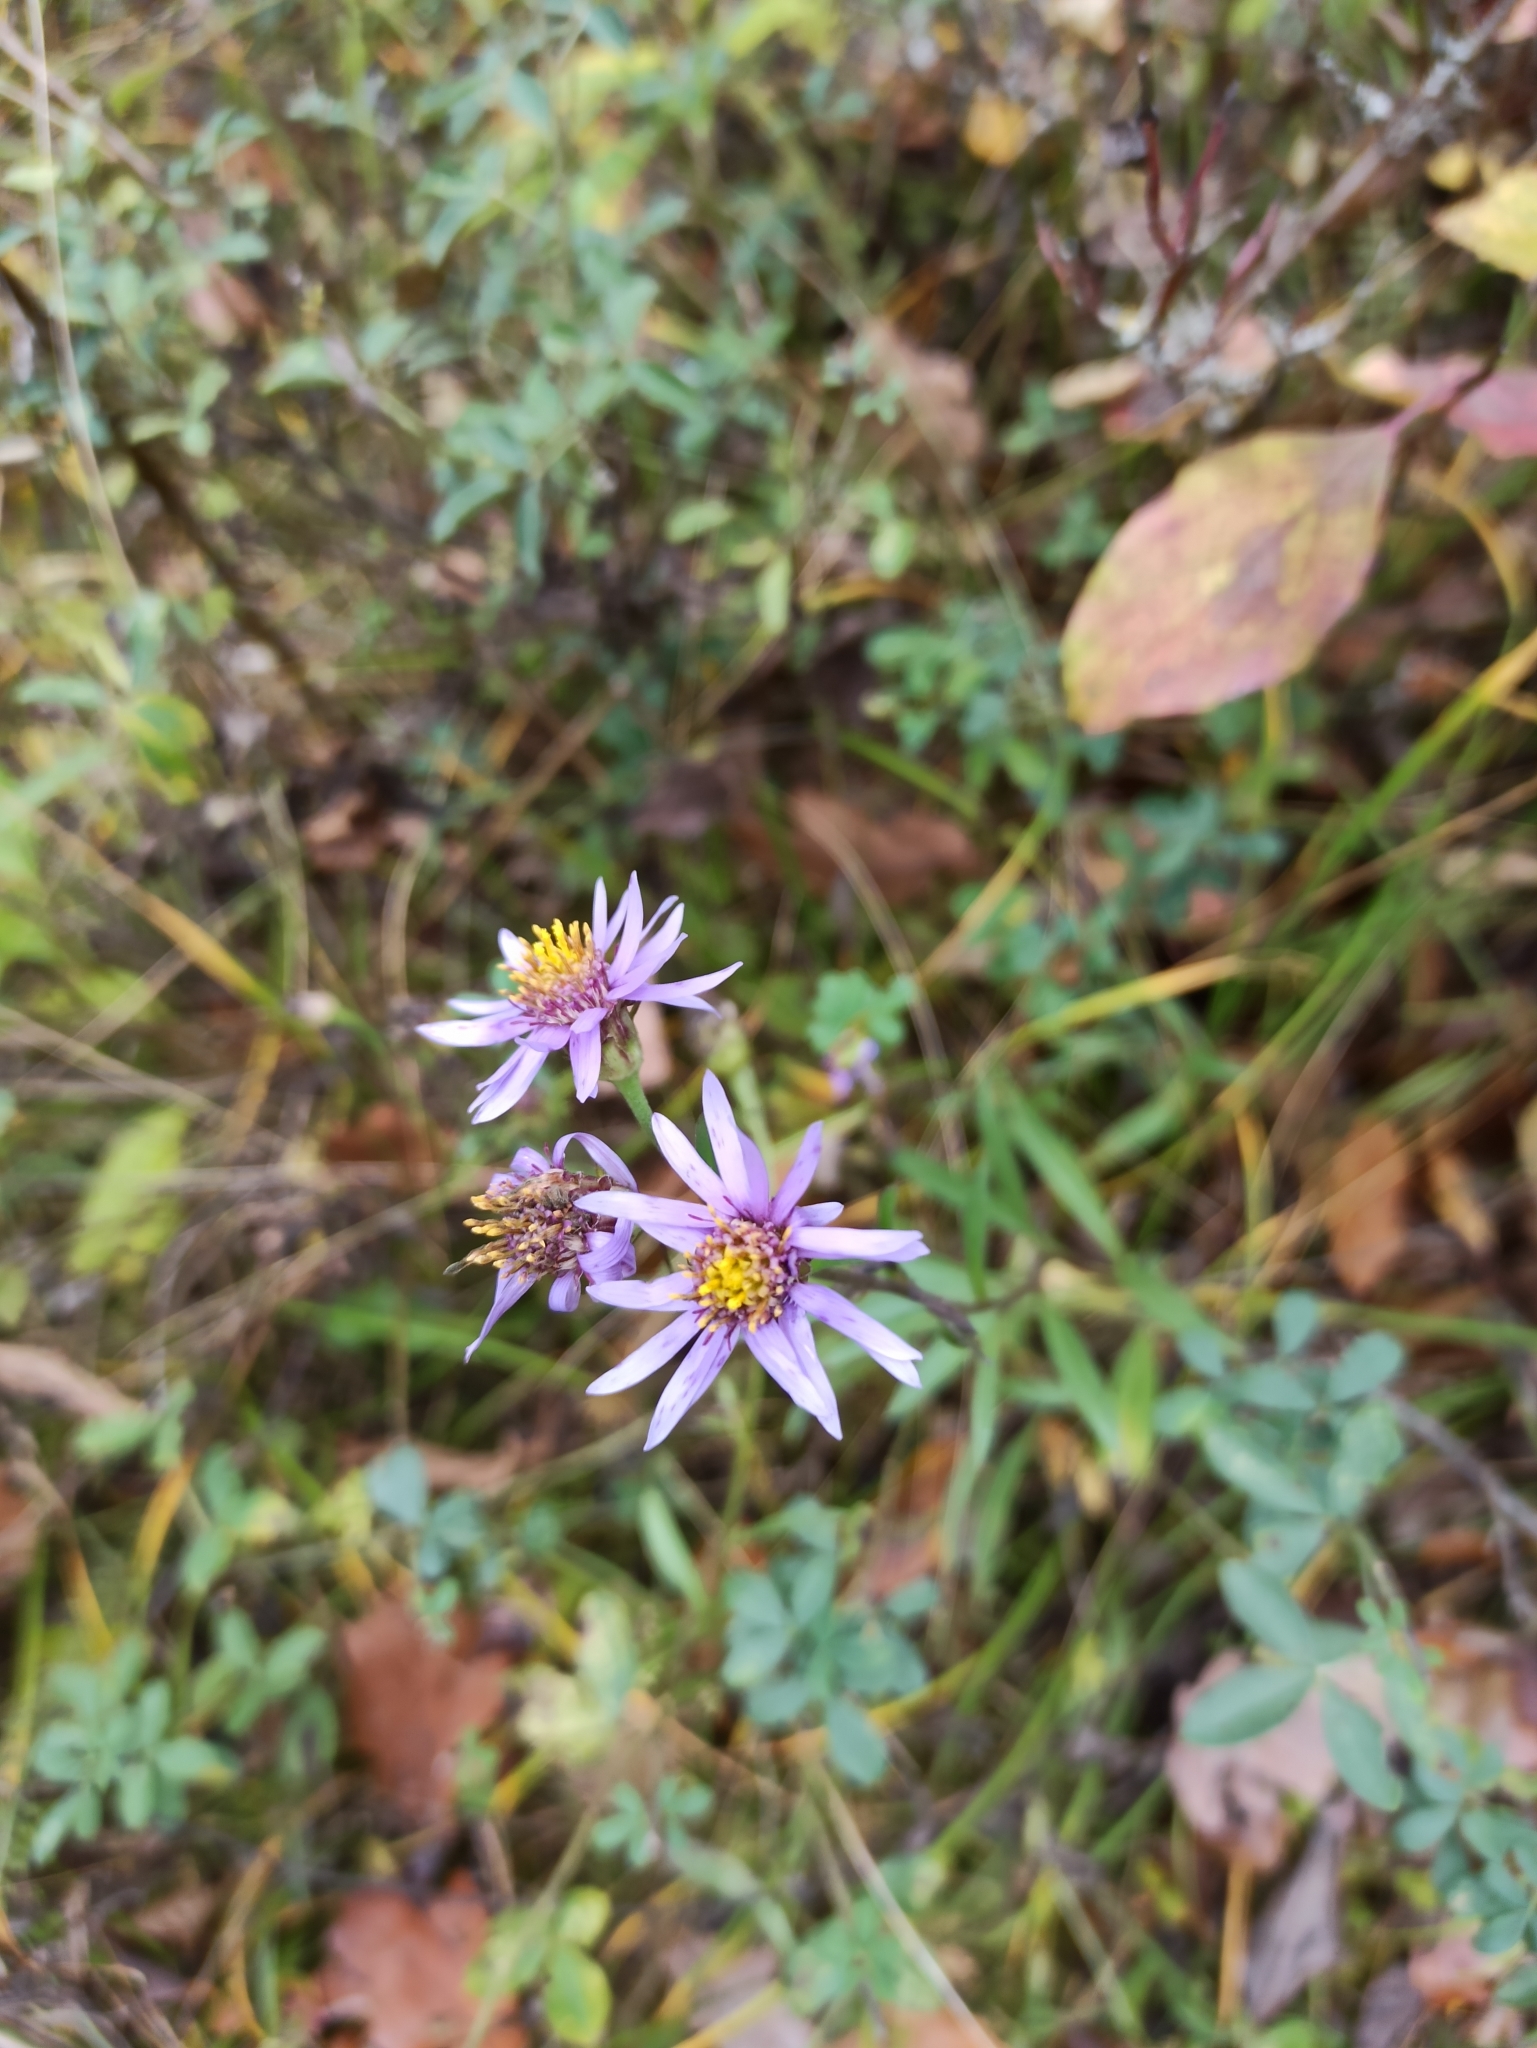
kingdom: Plantae
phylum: Tracheophyta
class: Magnoliopsida
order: Asterales
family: Asteraceae
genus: Aster
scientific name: Aster amellus
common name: European michaelmas daisy
